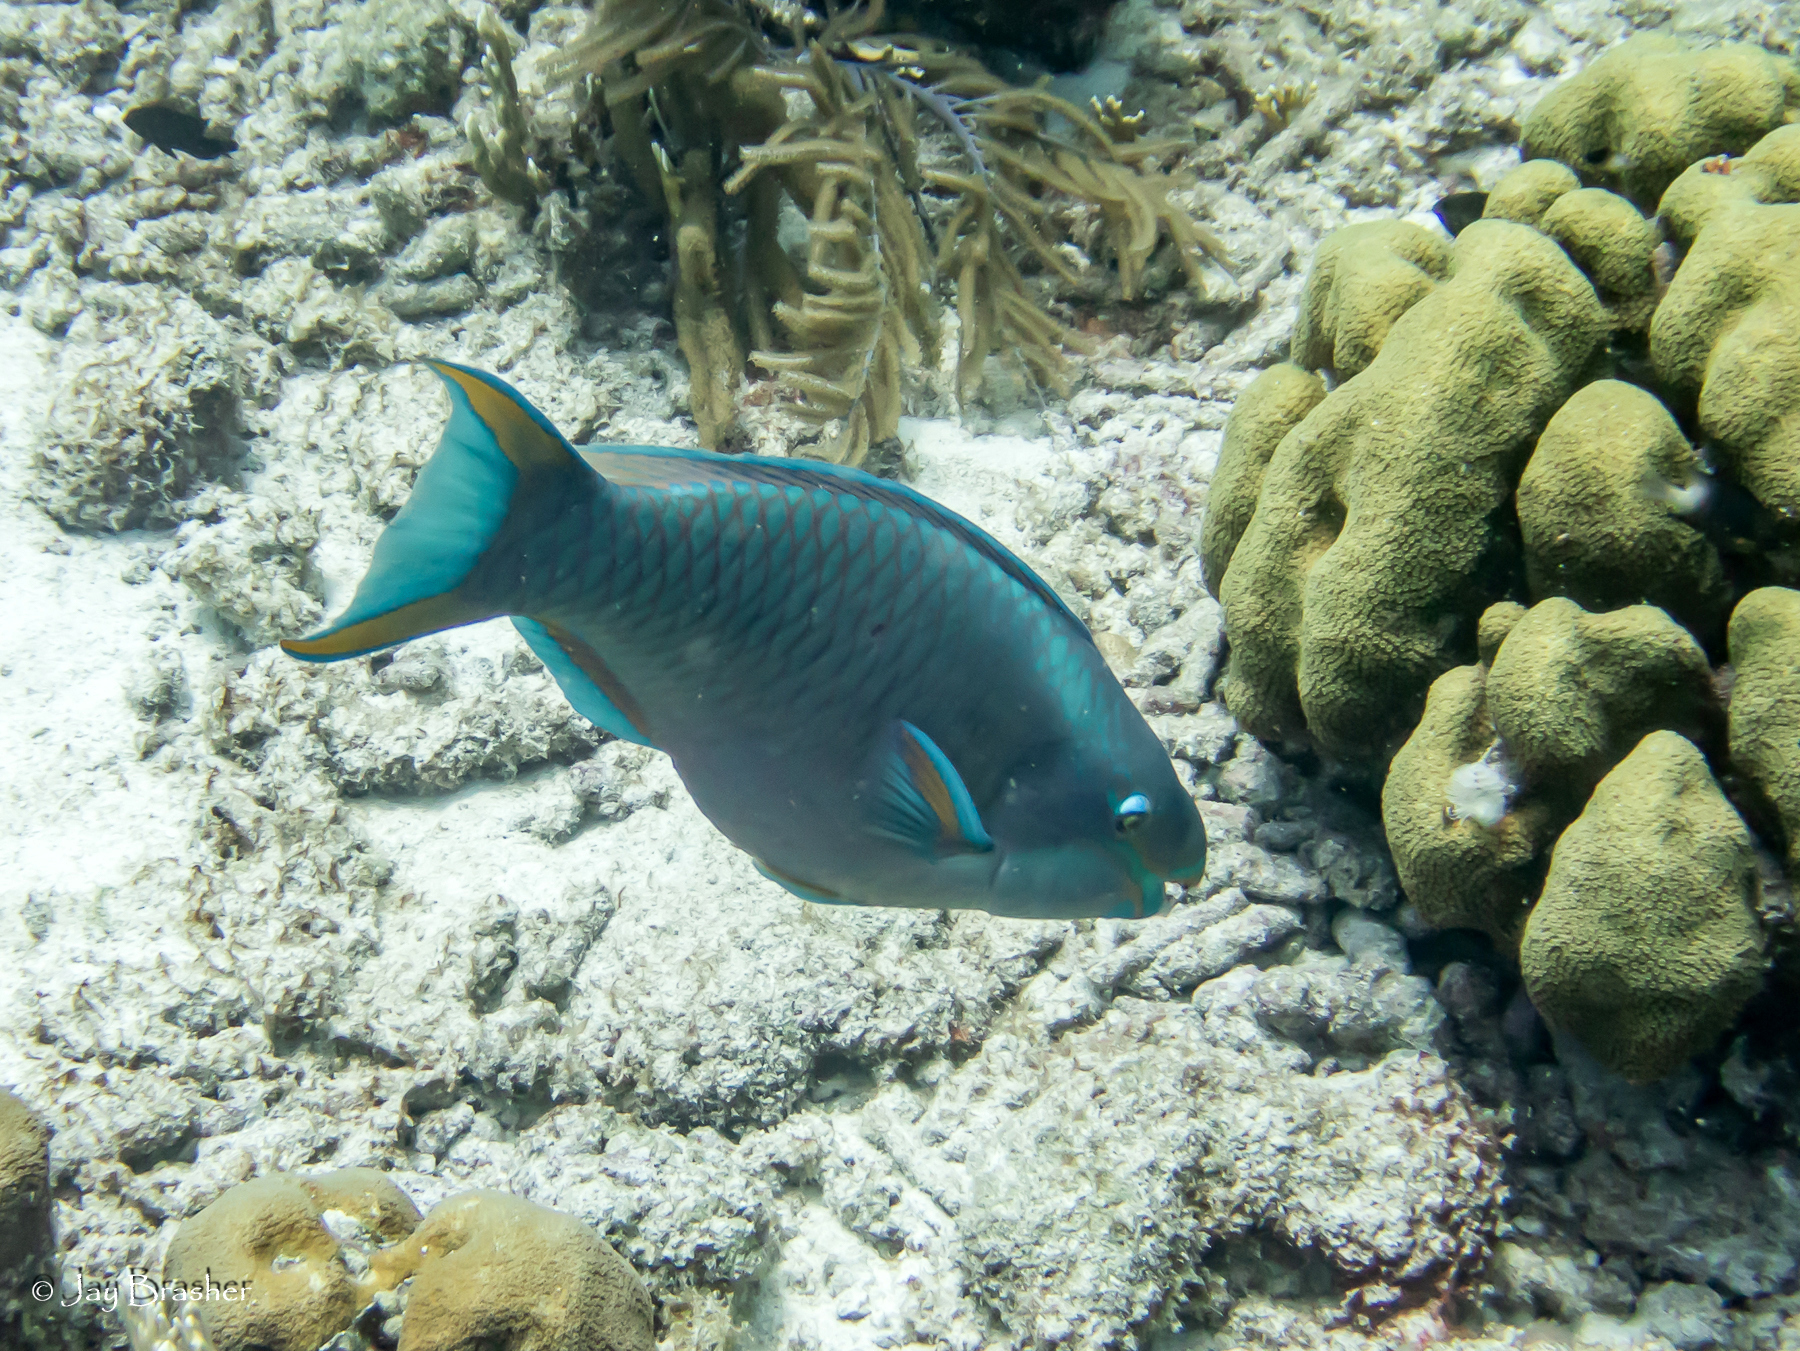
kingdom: Animalia
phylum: Chordata
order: Perciformes
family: Scaridae
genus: Scarus
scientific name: Scarus vetula
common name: Queen parrotfish
